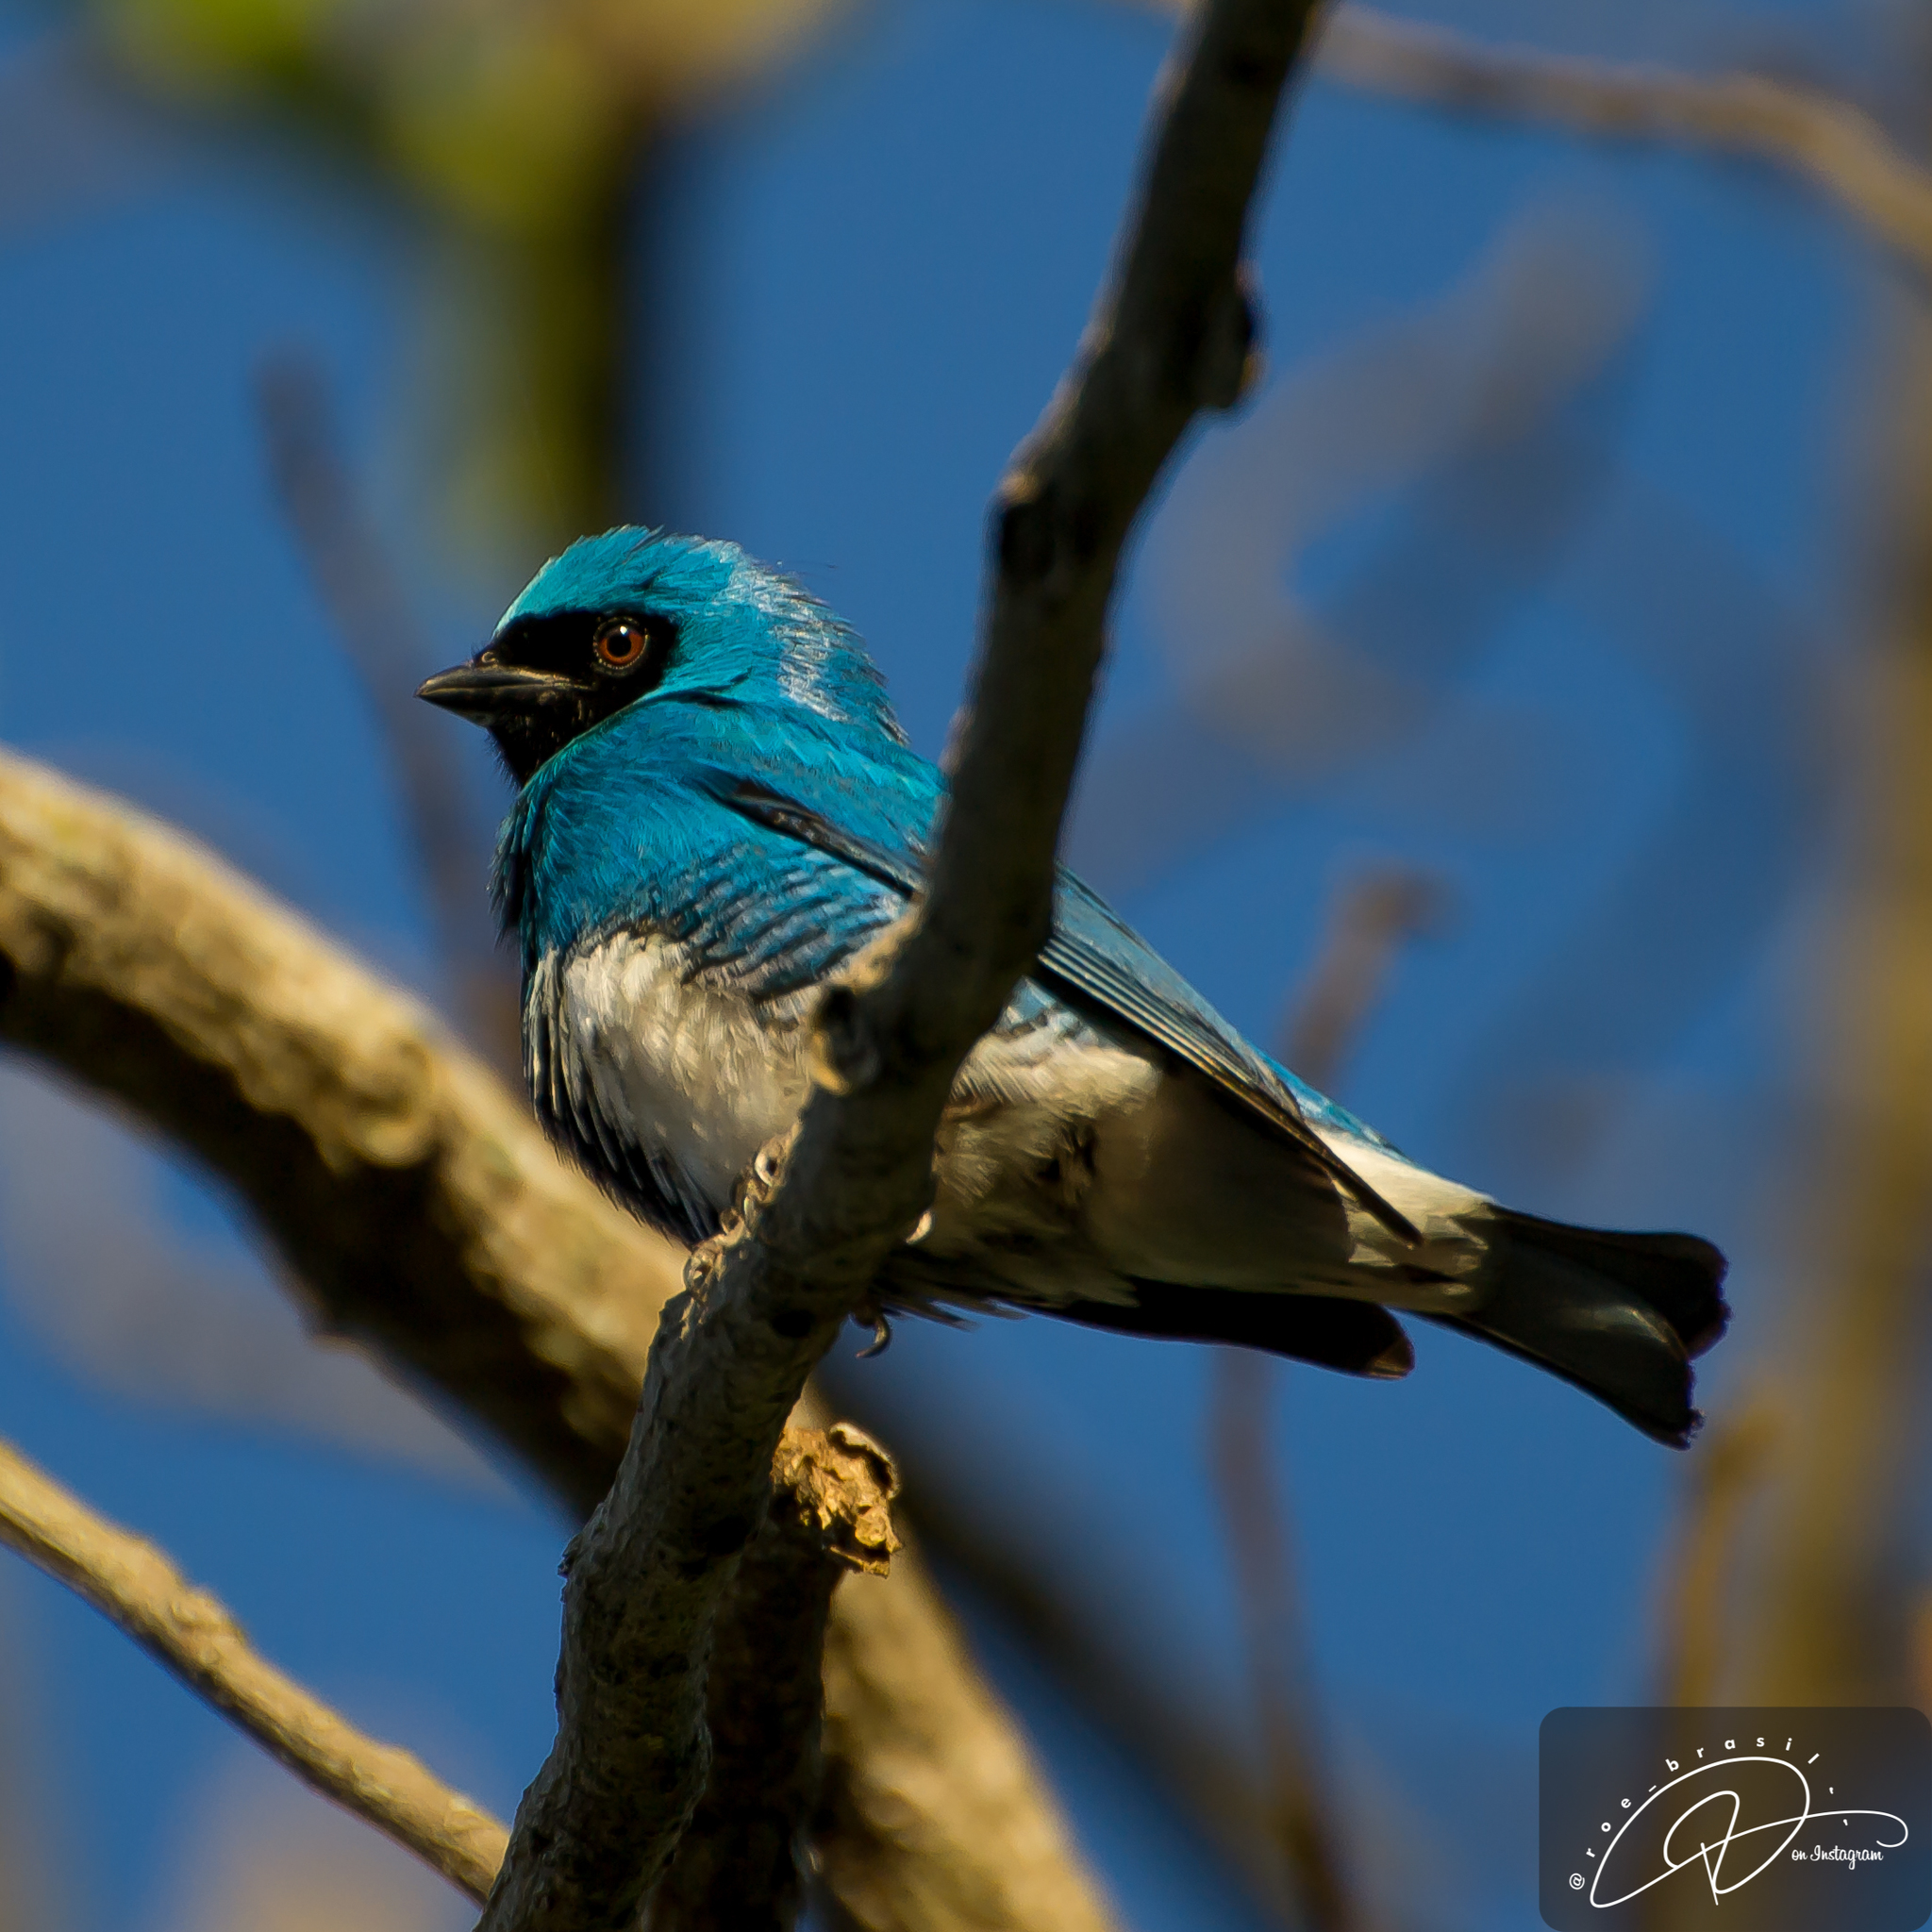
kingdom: Animalia
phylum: Chordata
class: Aves
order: Passeriformes
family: Thraupidae
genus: Tersina
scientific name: Tersina viridis
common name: Swallow tanager
